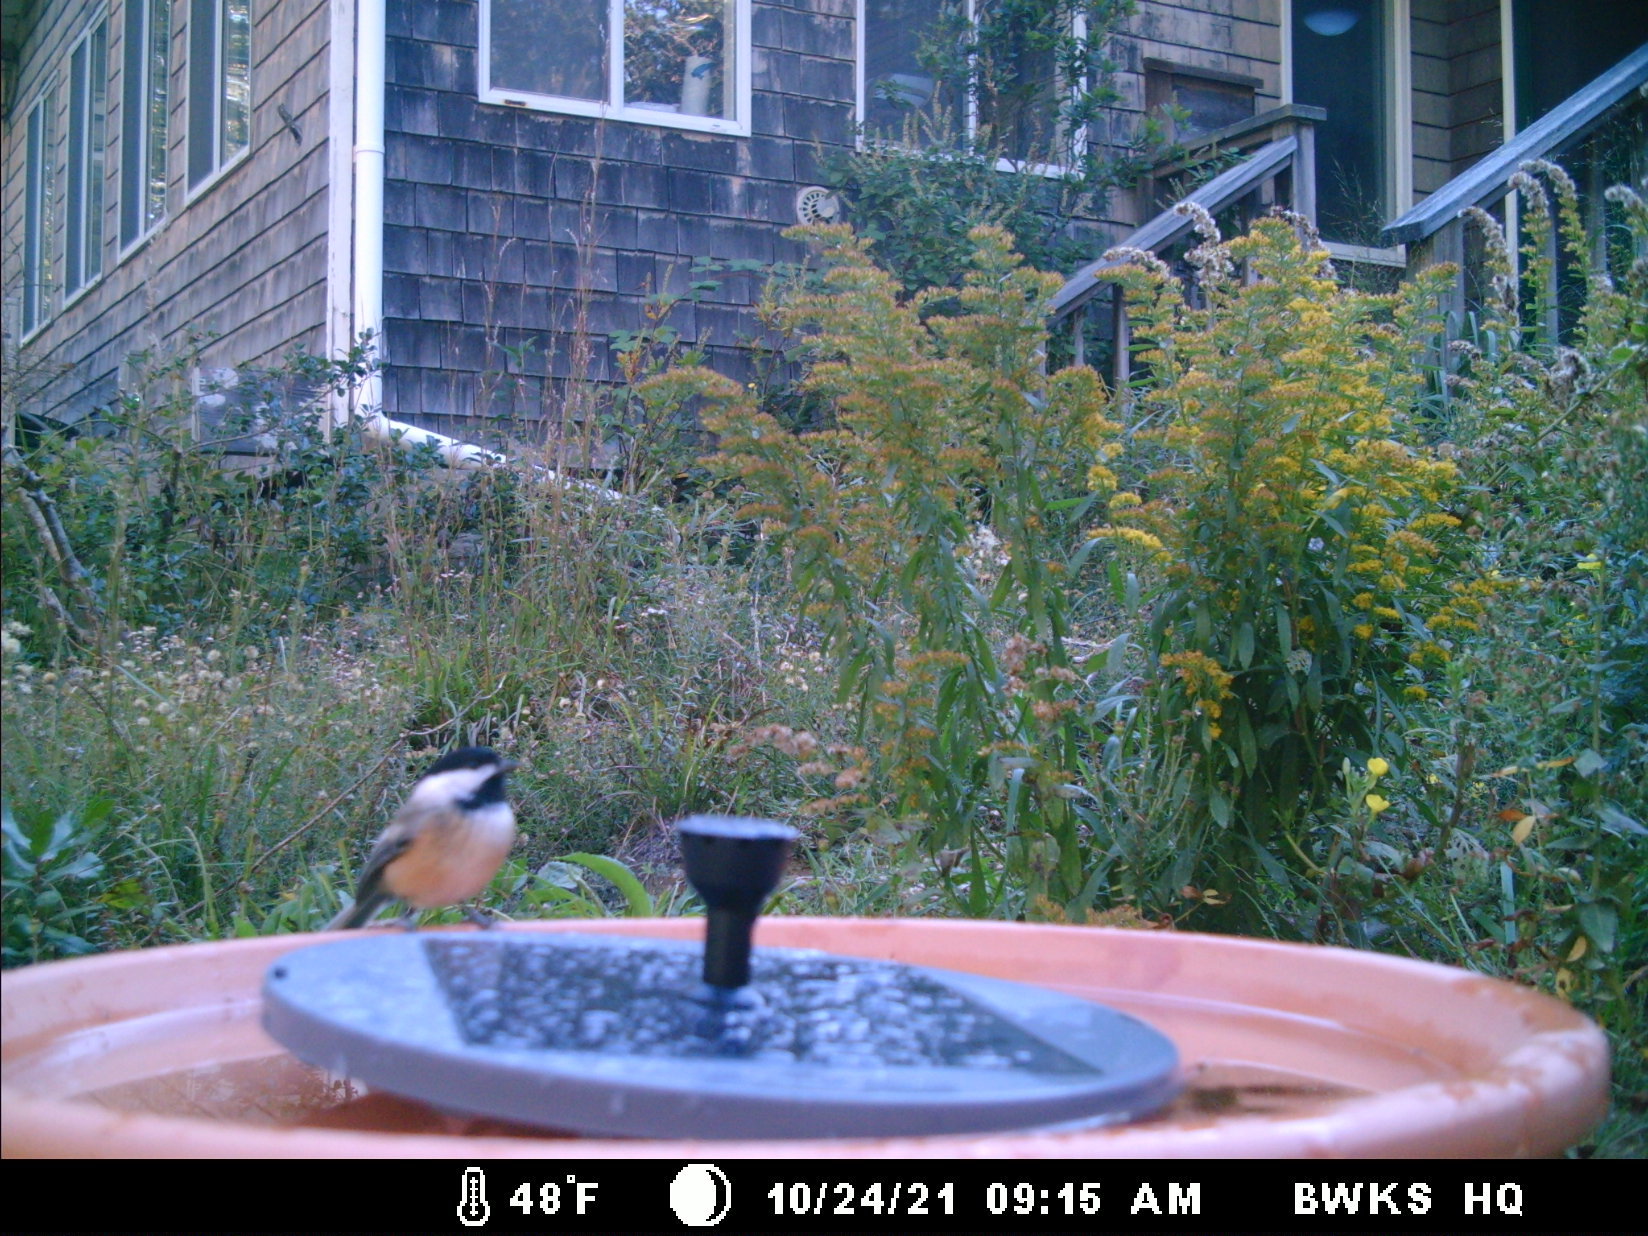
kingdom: Animalia
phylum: Chordata
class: Aves
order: Passeriformes
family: Paridae
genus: Poecile
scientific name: Poecile atricapillus
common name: Black-capped chickadee
